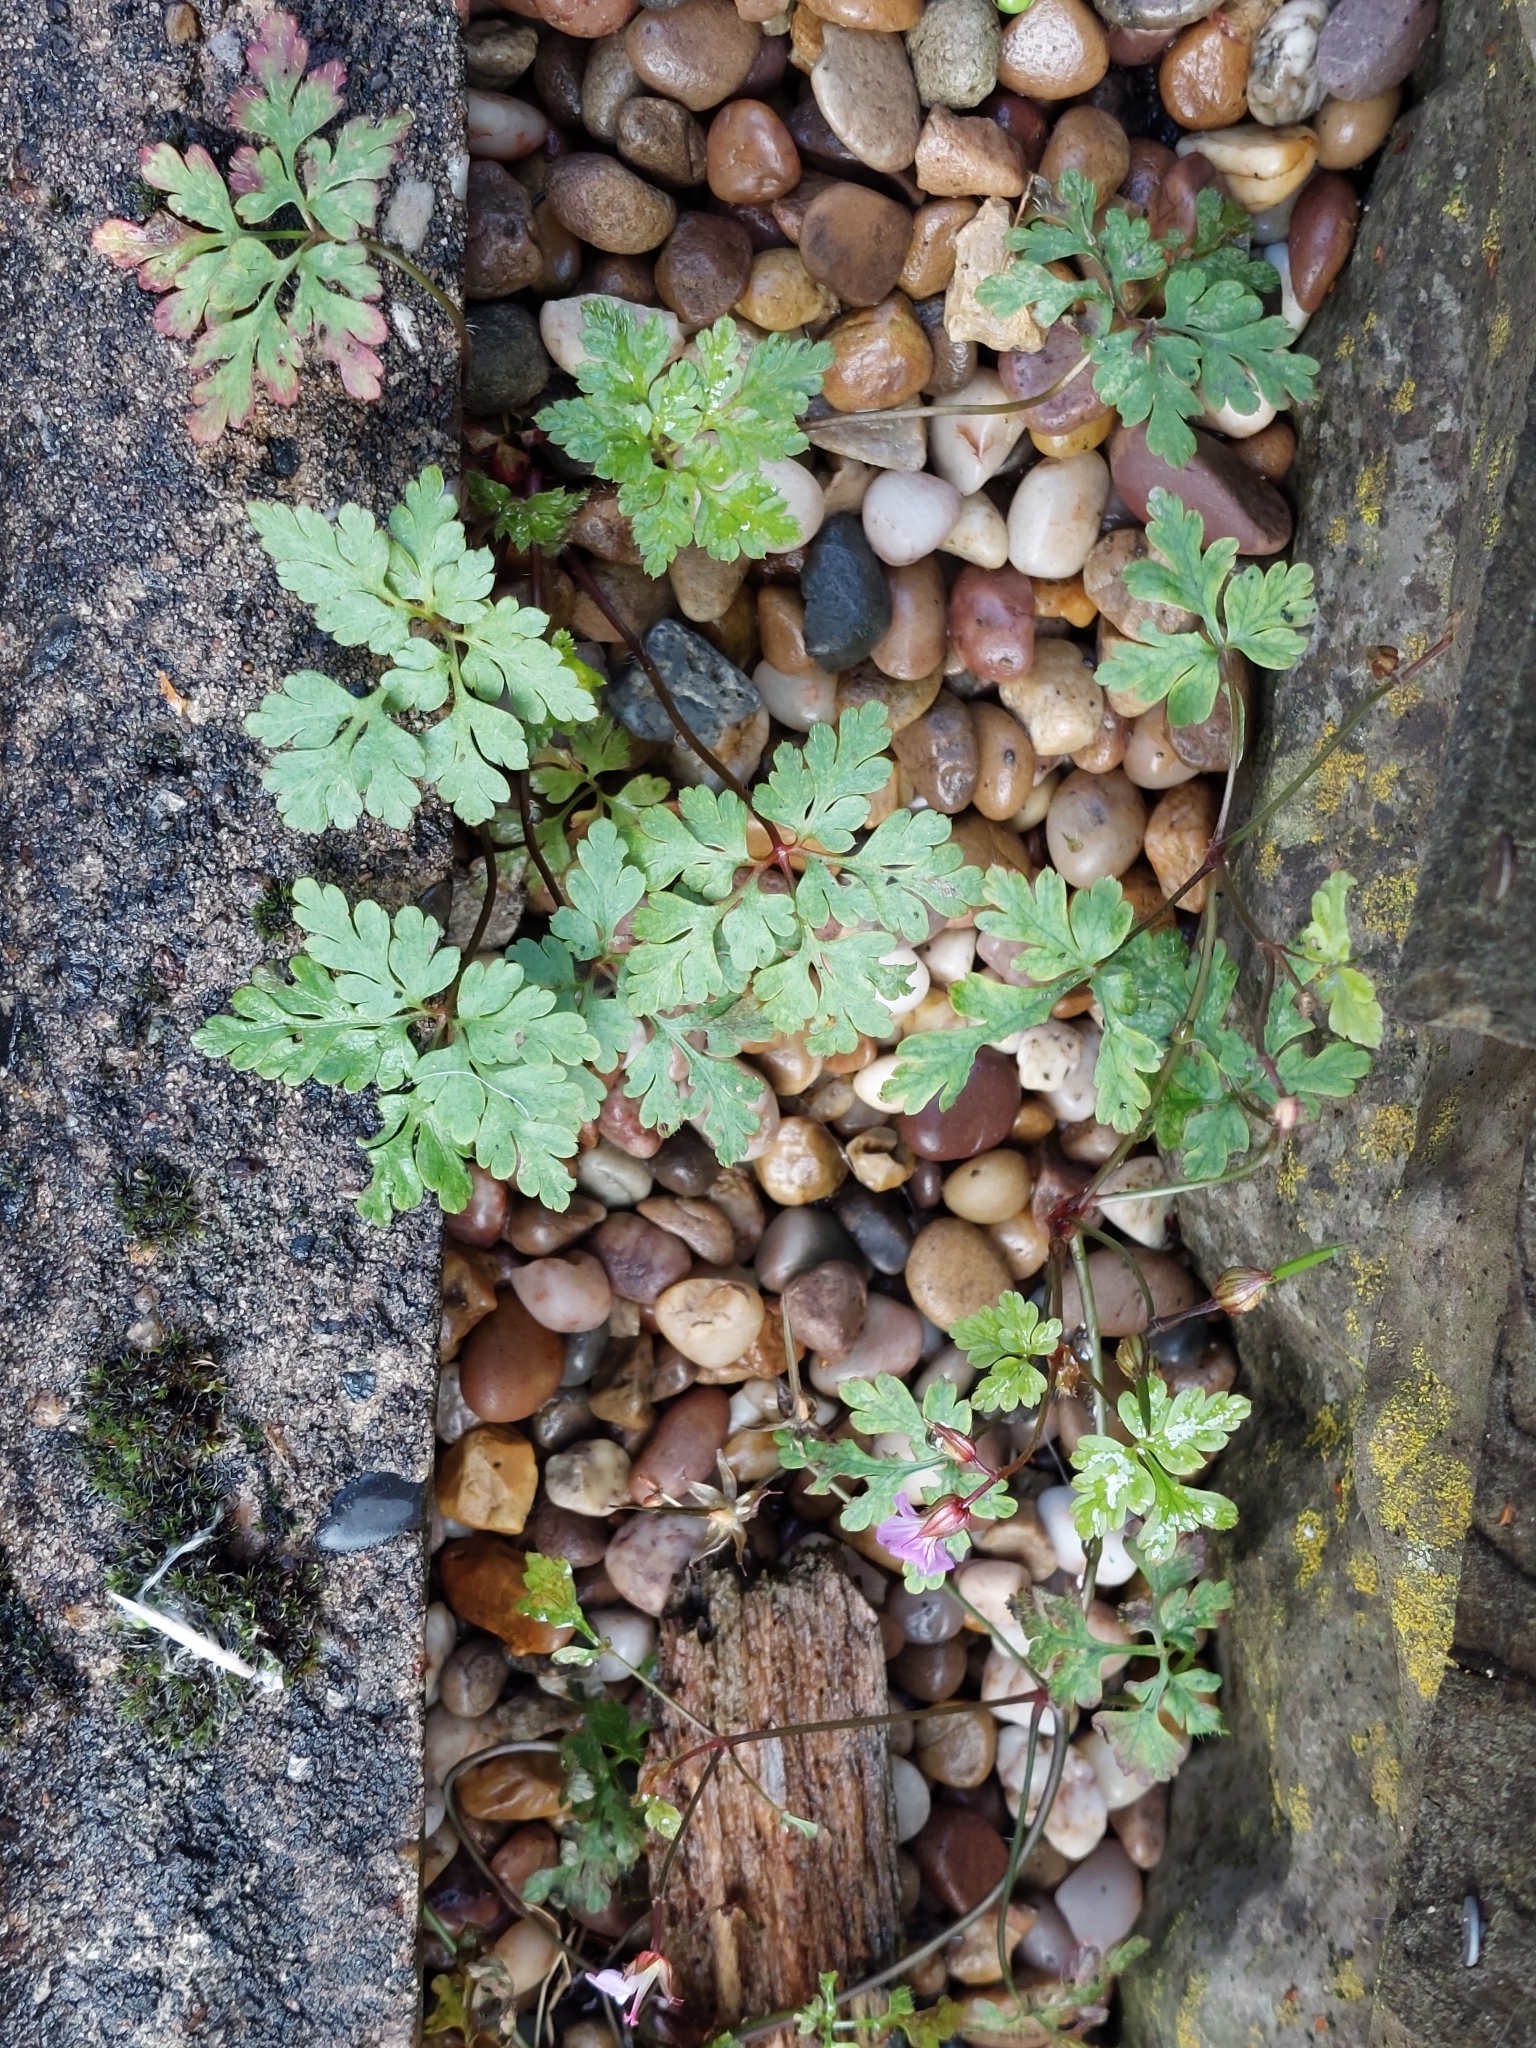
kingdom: Plantae
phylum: Tracheophyta
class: Magnoliopsida
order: Geraniales
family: Geraniaceae
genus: Geranium
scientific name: Geranium robertianum
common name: Herb-robert
